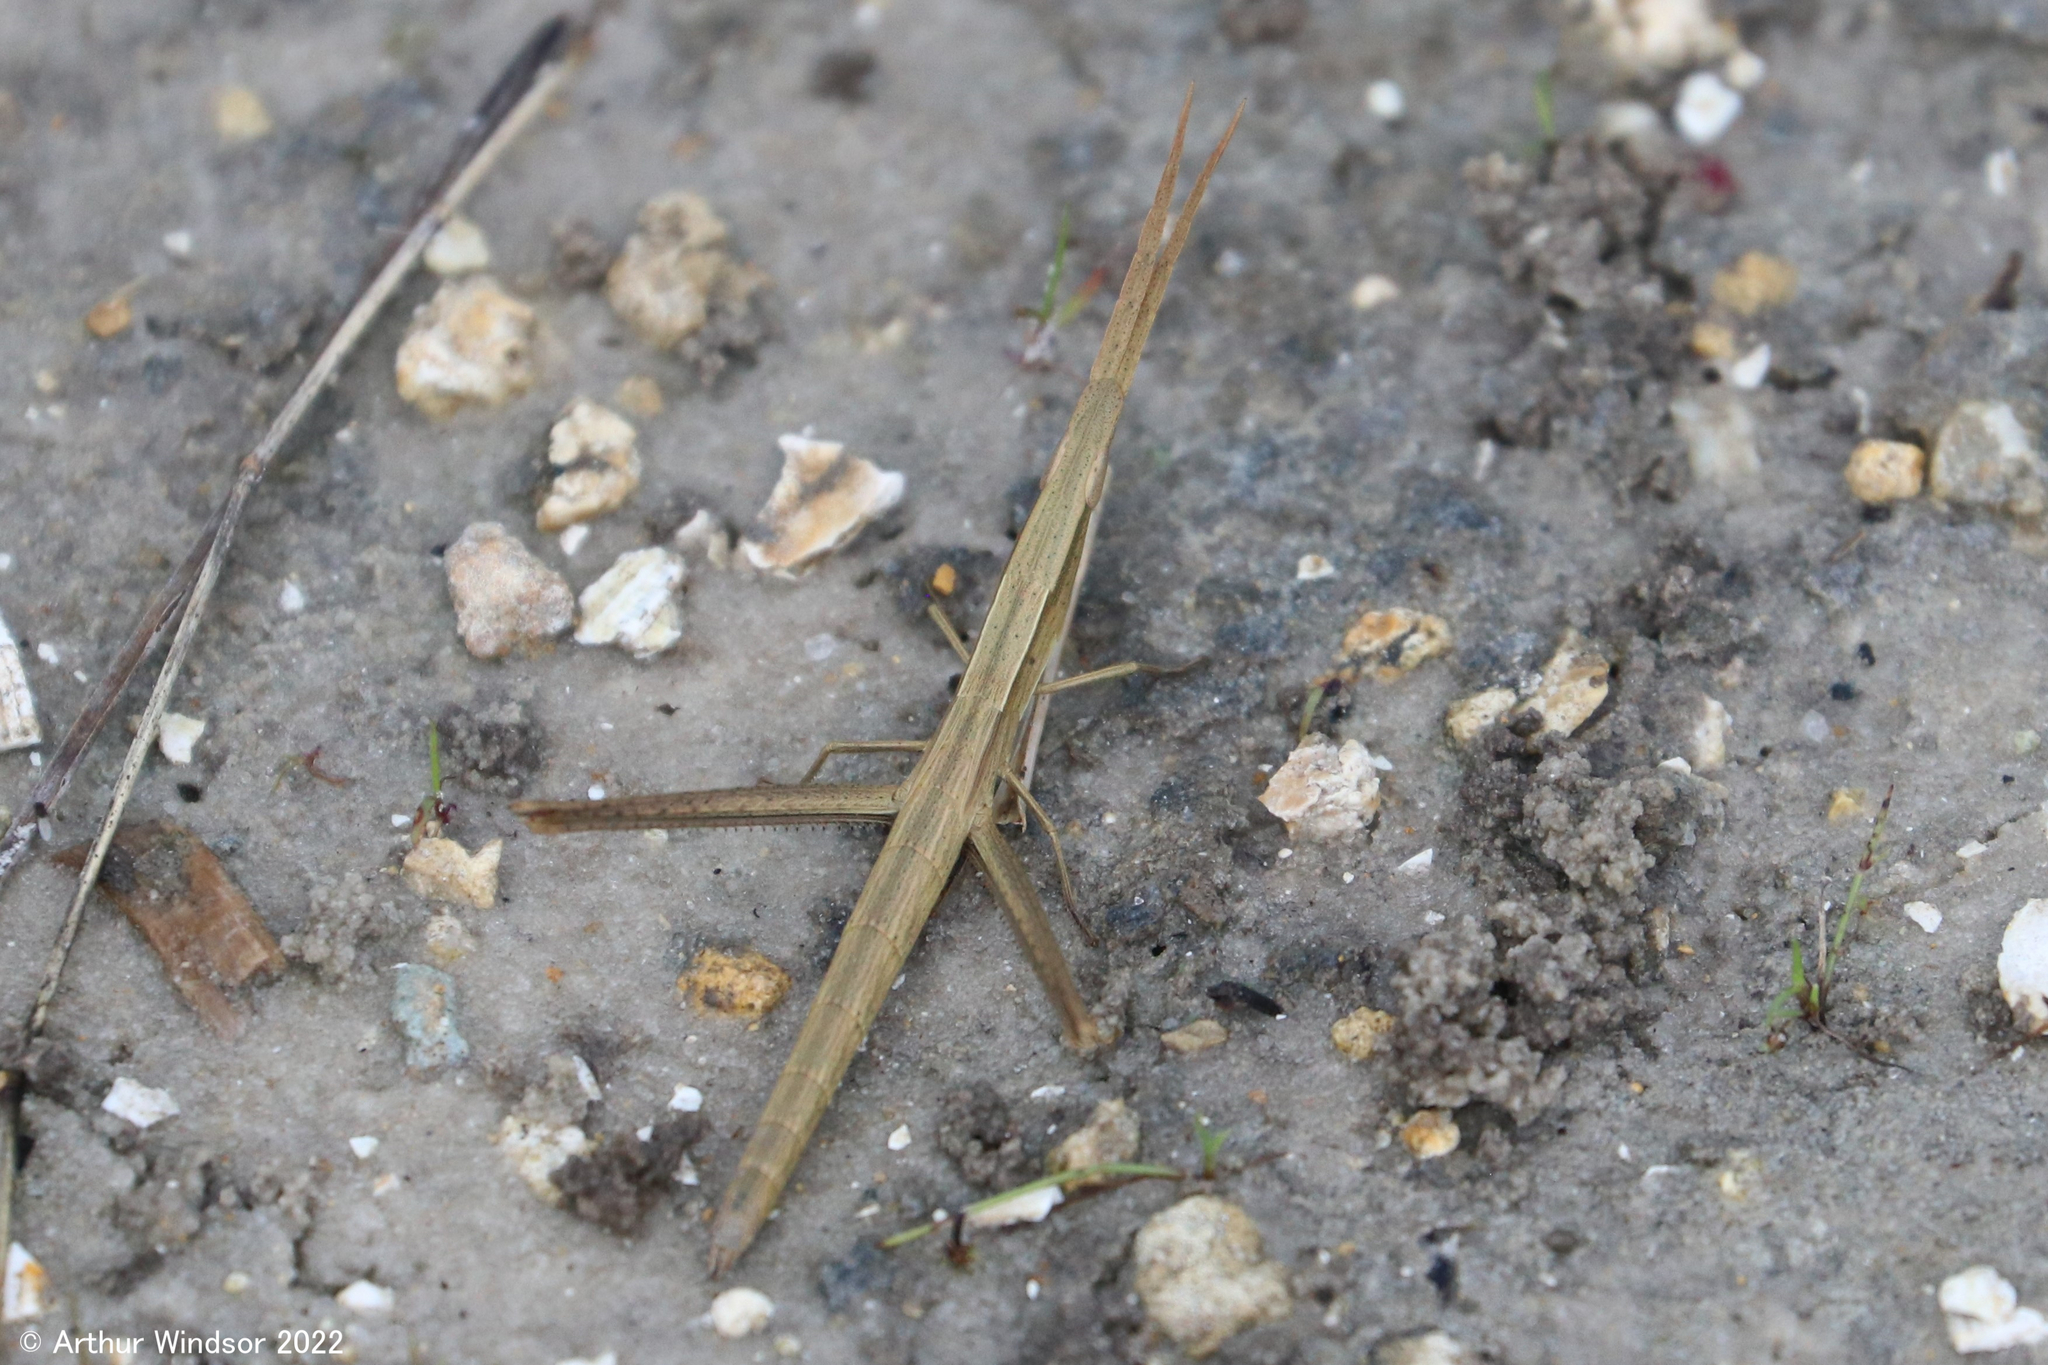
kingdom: Animalia
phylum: Arthropoda
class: Insecta
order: Orthoptera
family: Acrididae
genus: Achurum
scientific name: Achurum carinatum
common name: Long-headed toothpick grasshopper
